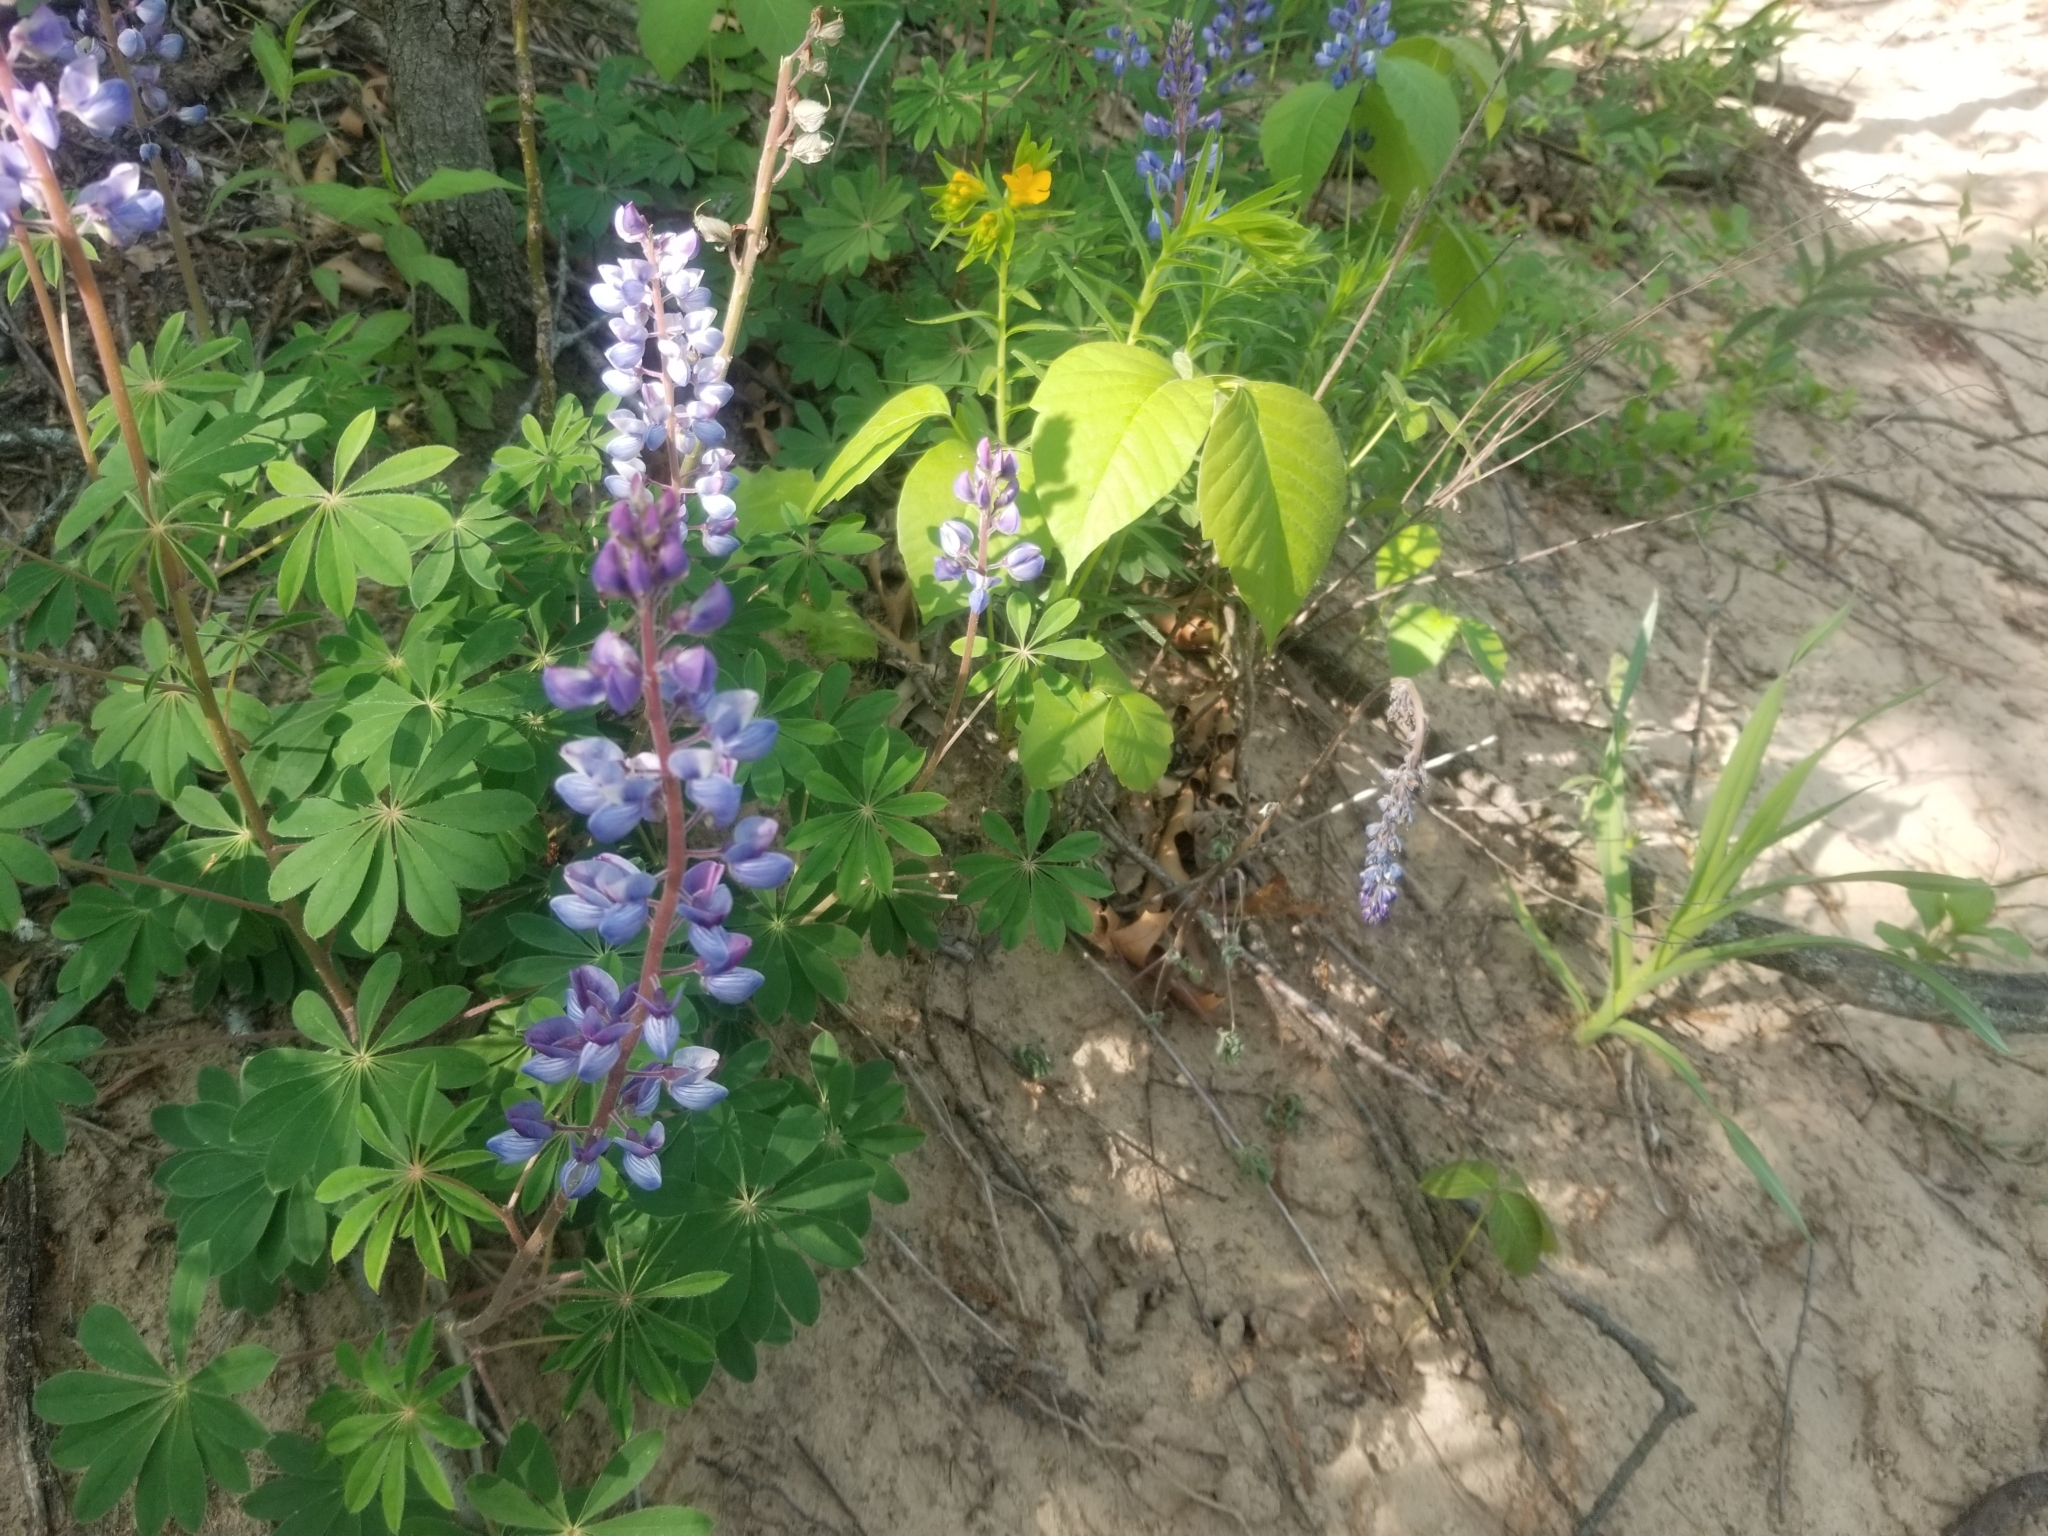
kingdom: Plantae
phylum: Tracheophyta
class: Magnoliopsida
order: Fabales
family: Fabaceae
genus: Lupinus
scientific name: Lupinus perennis
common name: Sundial lupine
